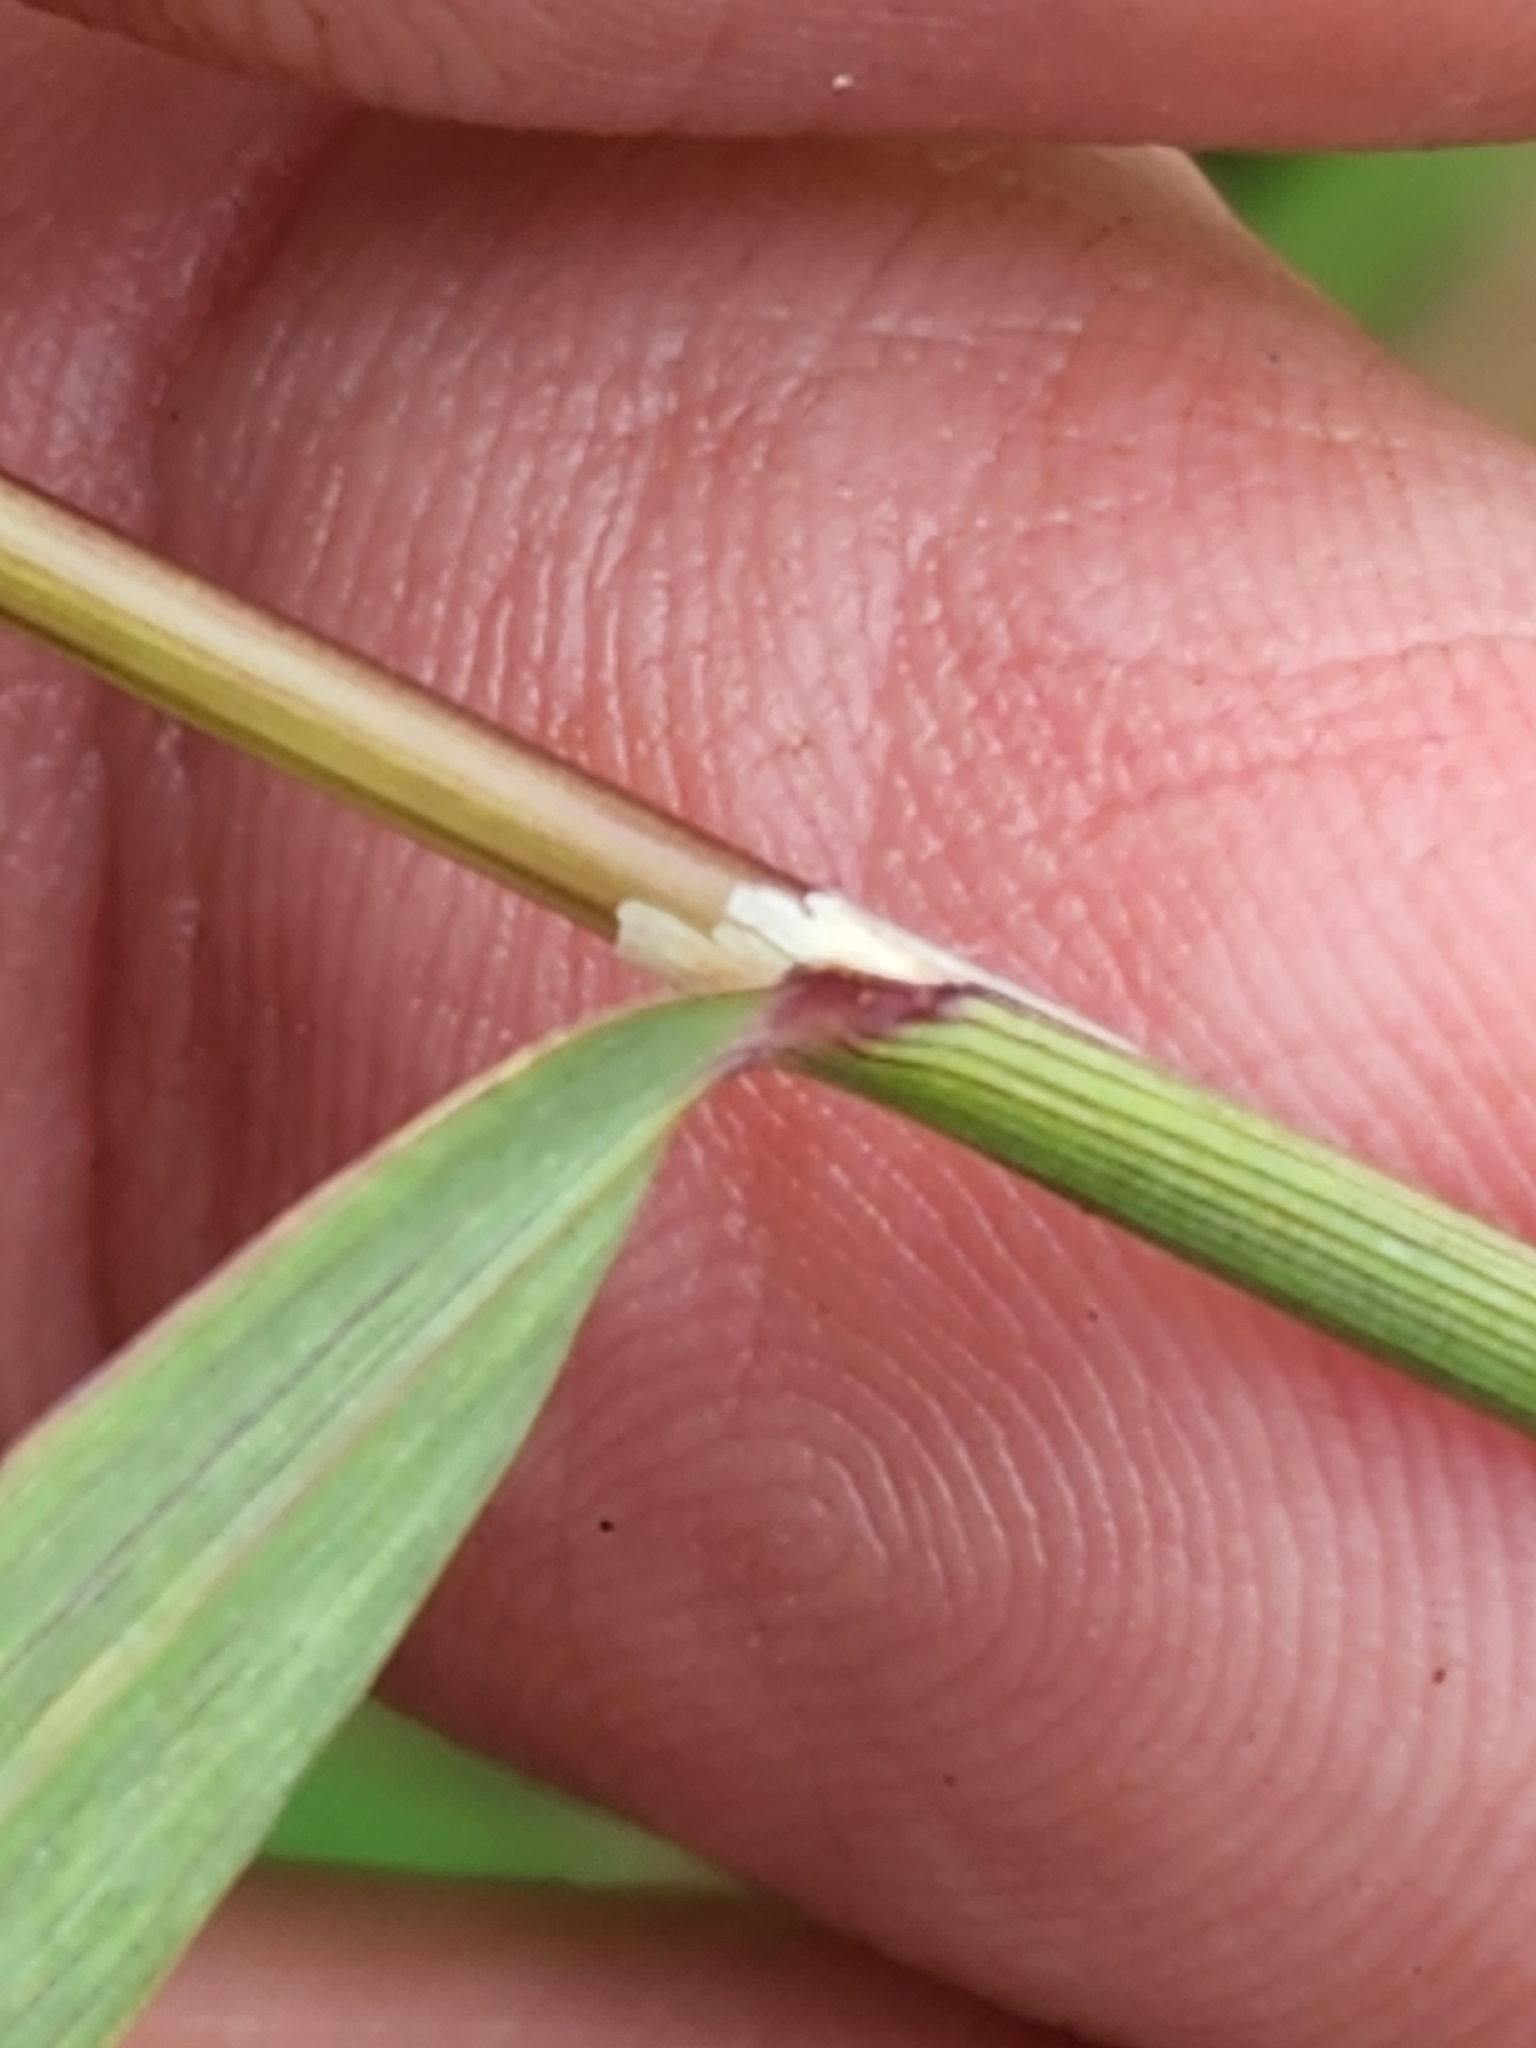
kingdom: Plantae
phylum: Tracheophyta
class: Liliopsida
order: Poales
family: Poaceae
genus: Calamagrostis
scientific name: Calamagrostis canadensis
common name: Canada bluejoint
